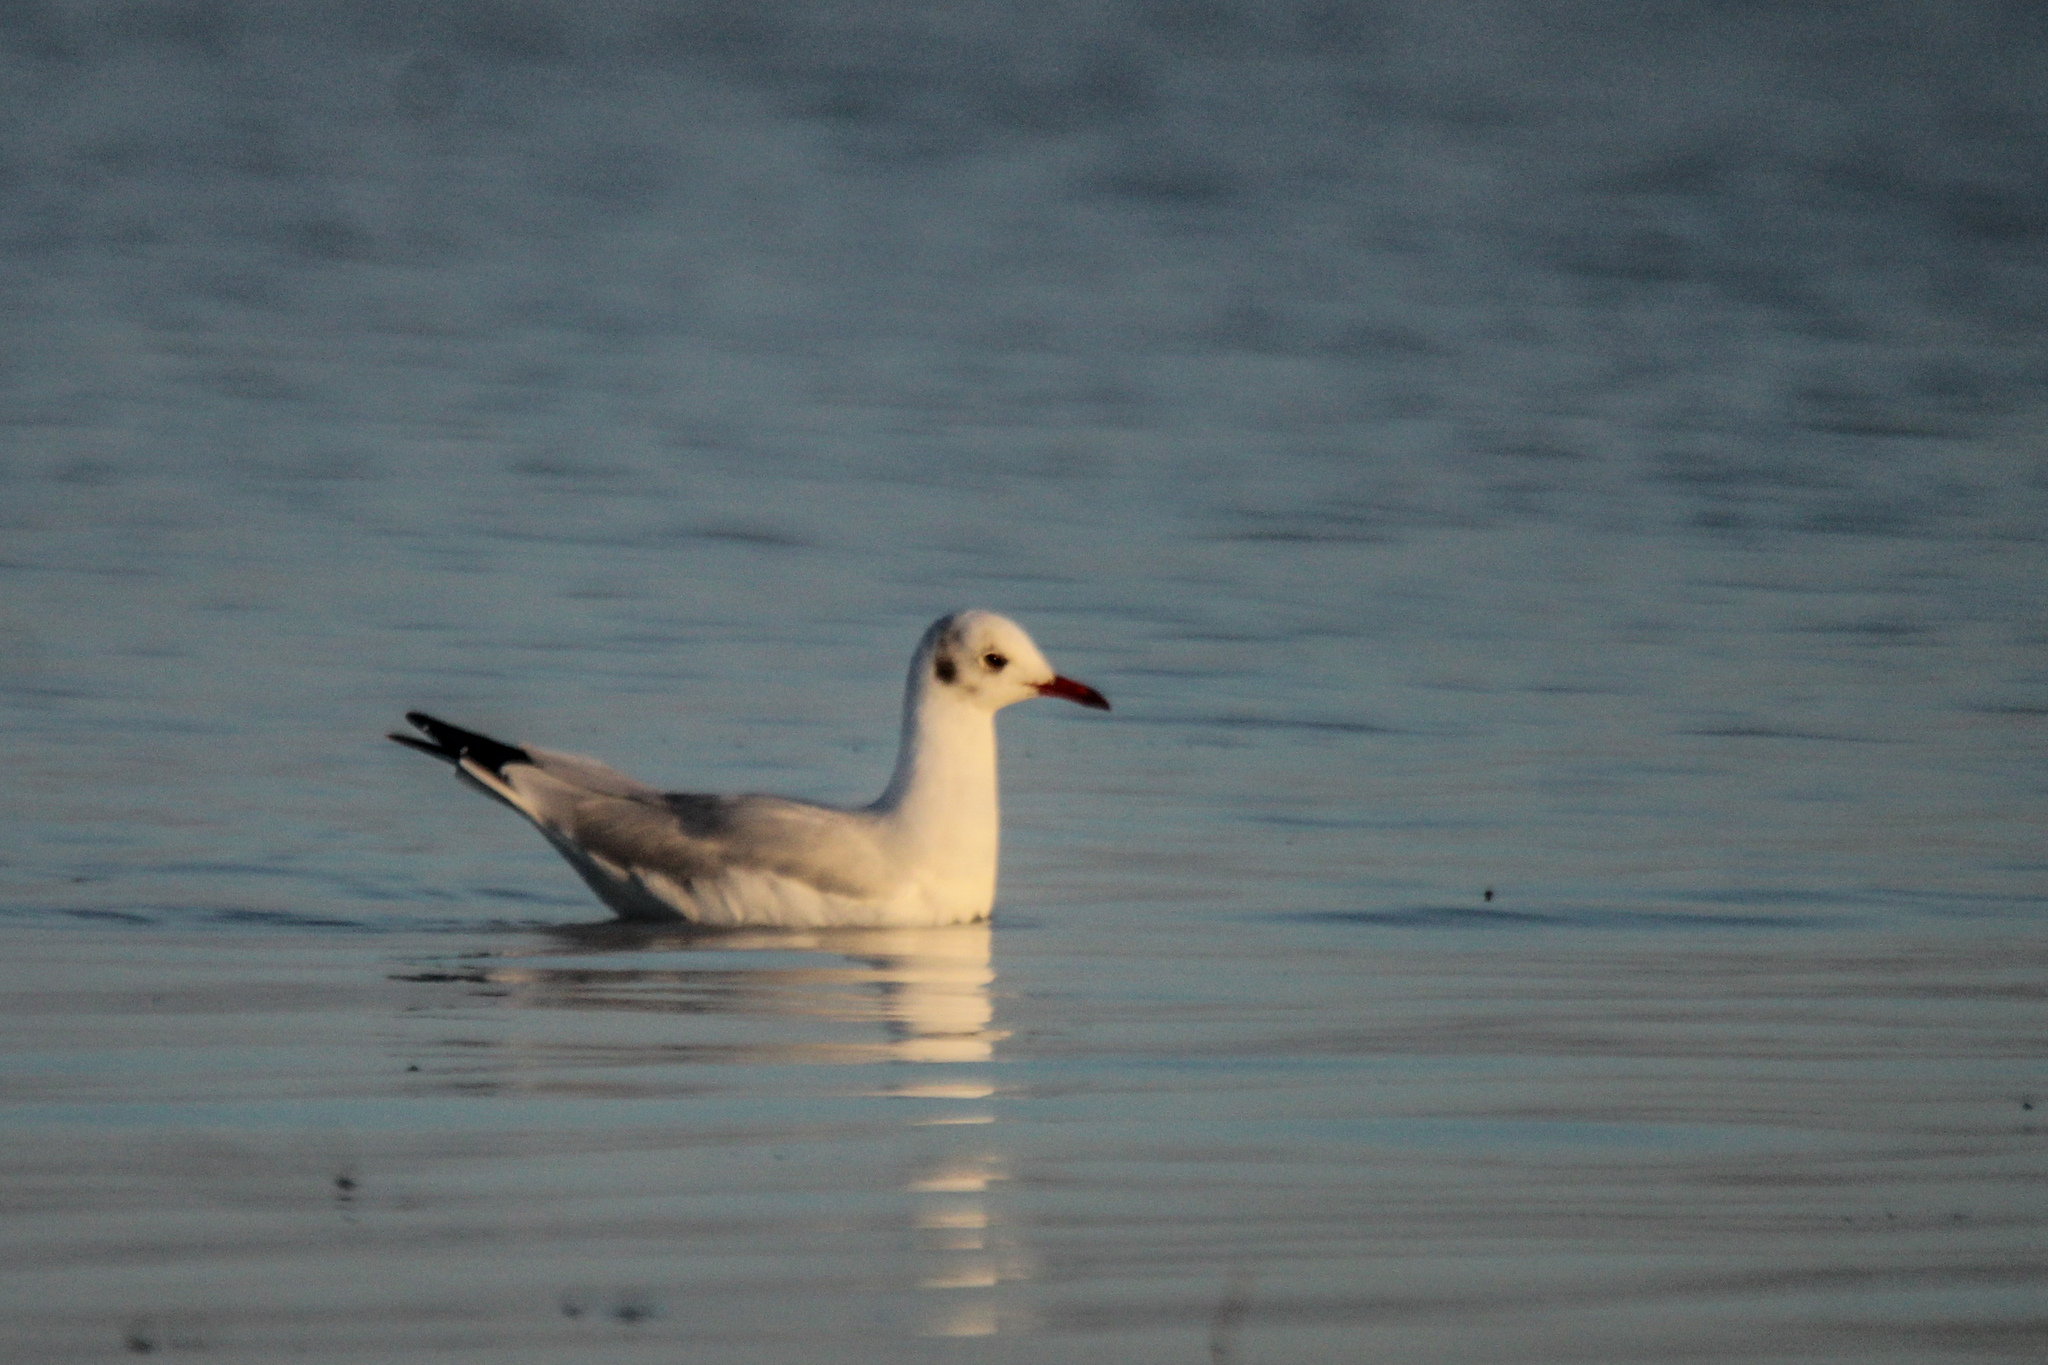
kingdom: Animalia
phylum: Chordata
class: Aves
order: Charadriiformes
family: Laridae
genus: Chroicocephalus
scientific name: Chroicocephalus ridibundus
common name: Black-headed gull
